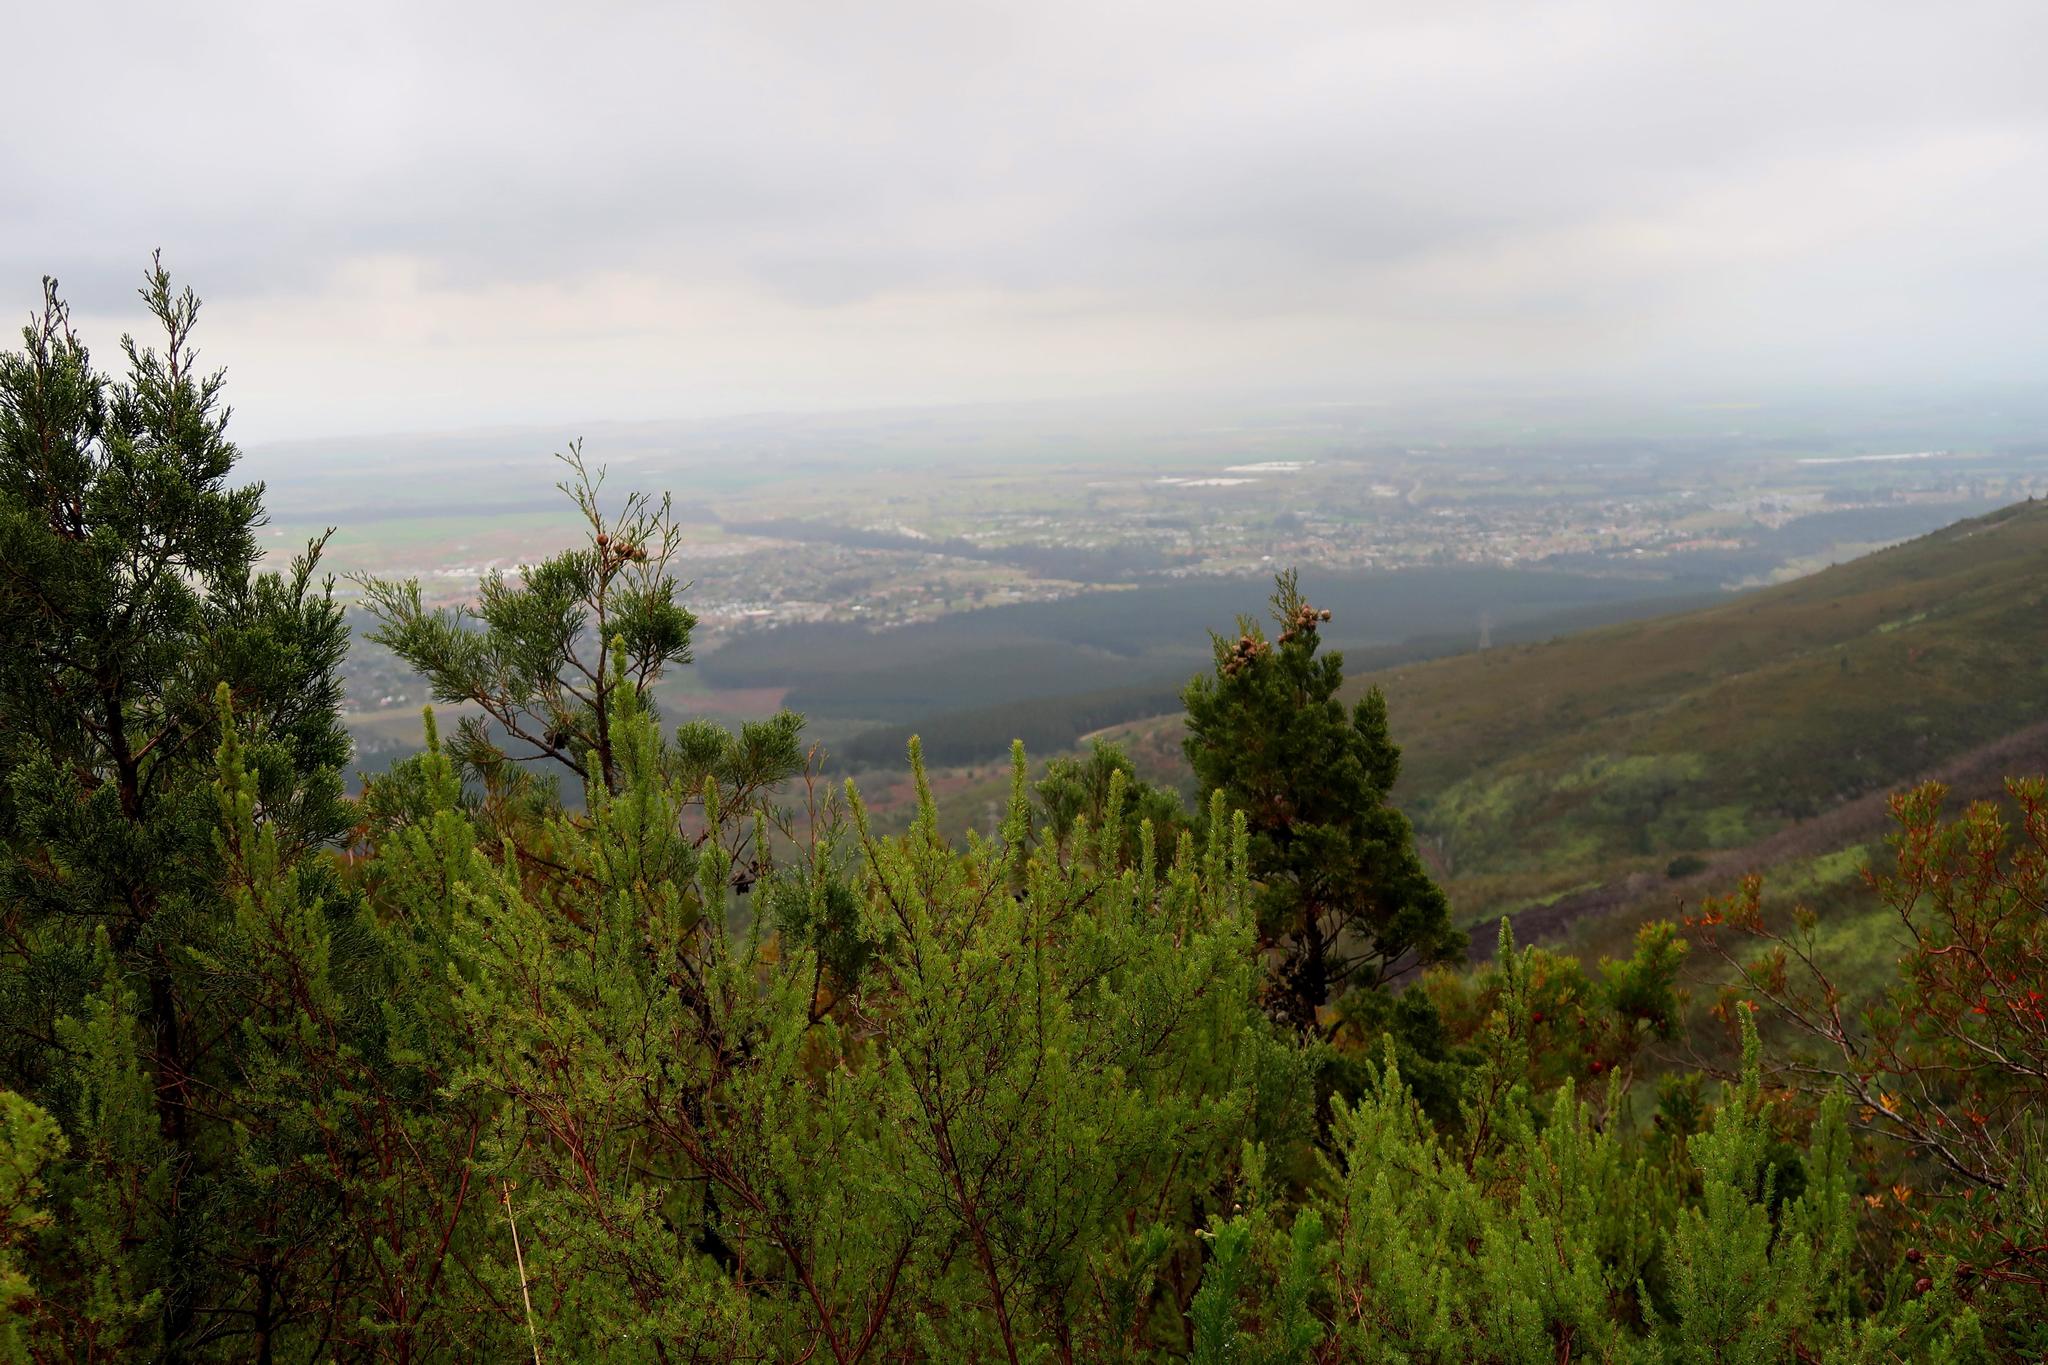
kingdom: Plantae
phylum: Tracheophyta
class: Pinopsida
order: Pinales
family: Cupressaceae
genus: Widdringtonia
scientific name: Widdringtonia nodiflora
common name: Cape cypress
